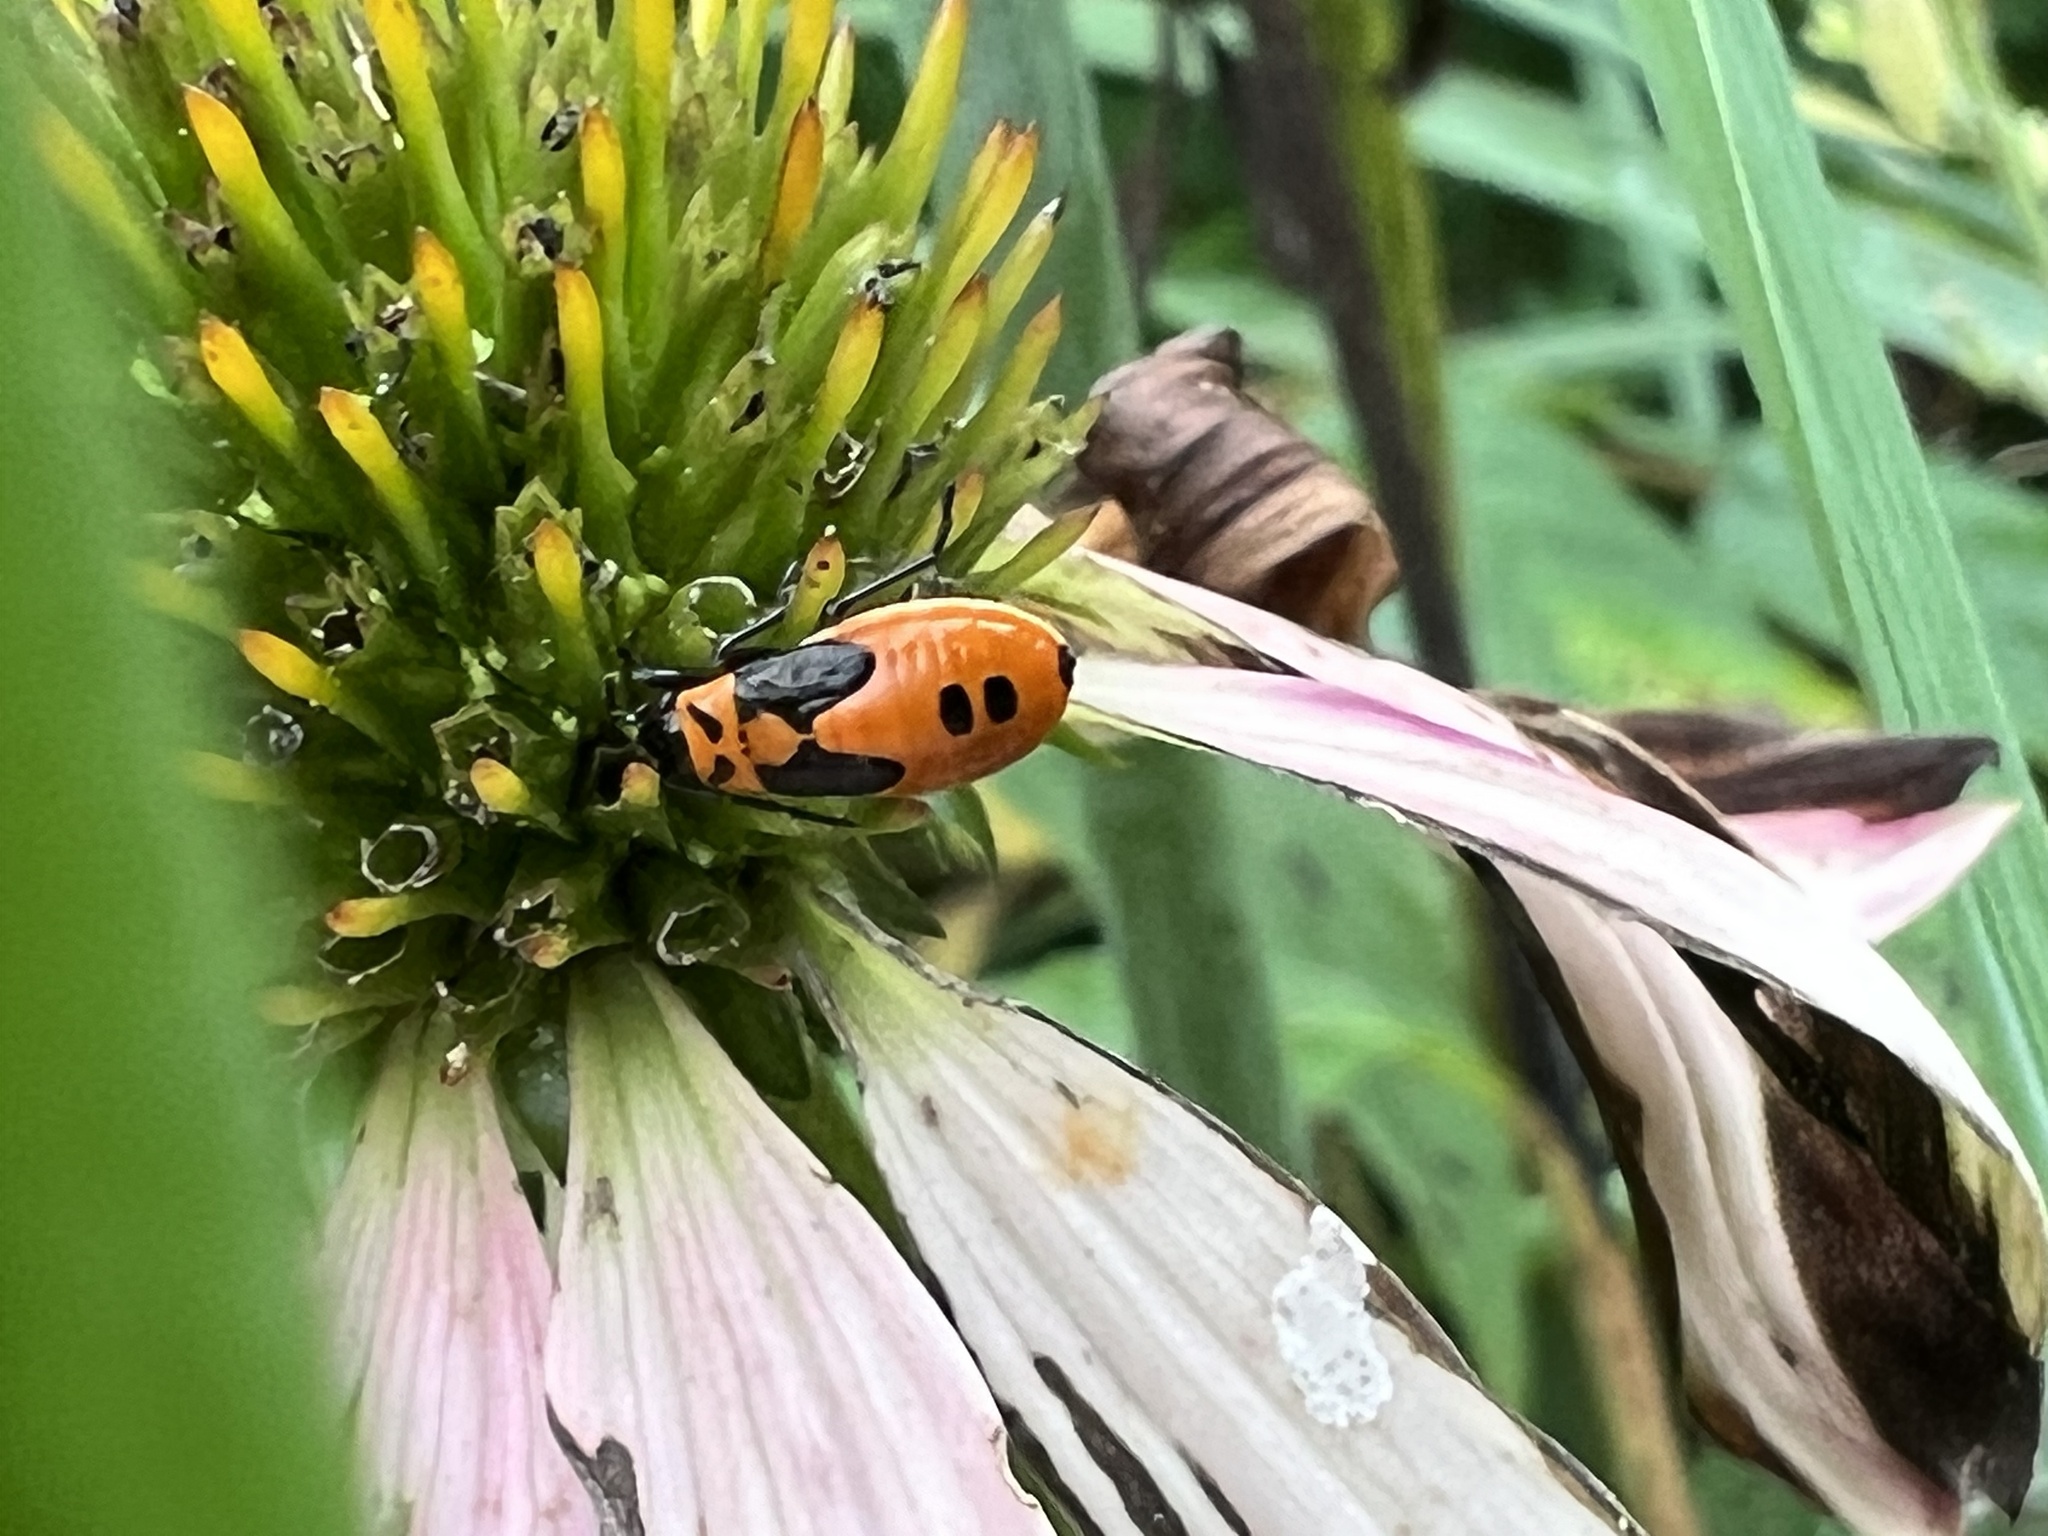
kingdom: Animalia
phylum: Arthropoda
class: Insecta
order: Hemiptera
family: Lygaeidae
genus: Lygaeus
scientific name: Lygaeus turcicus
